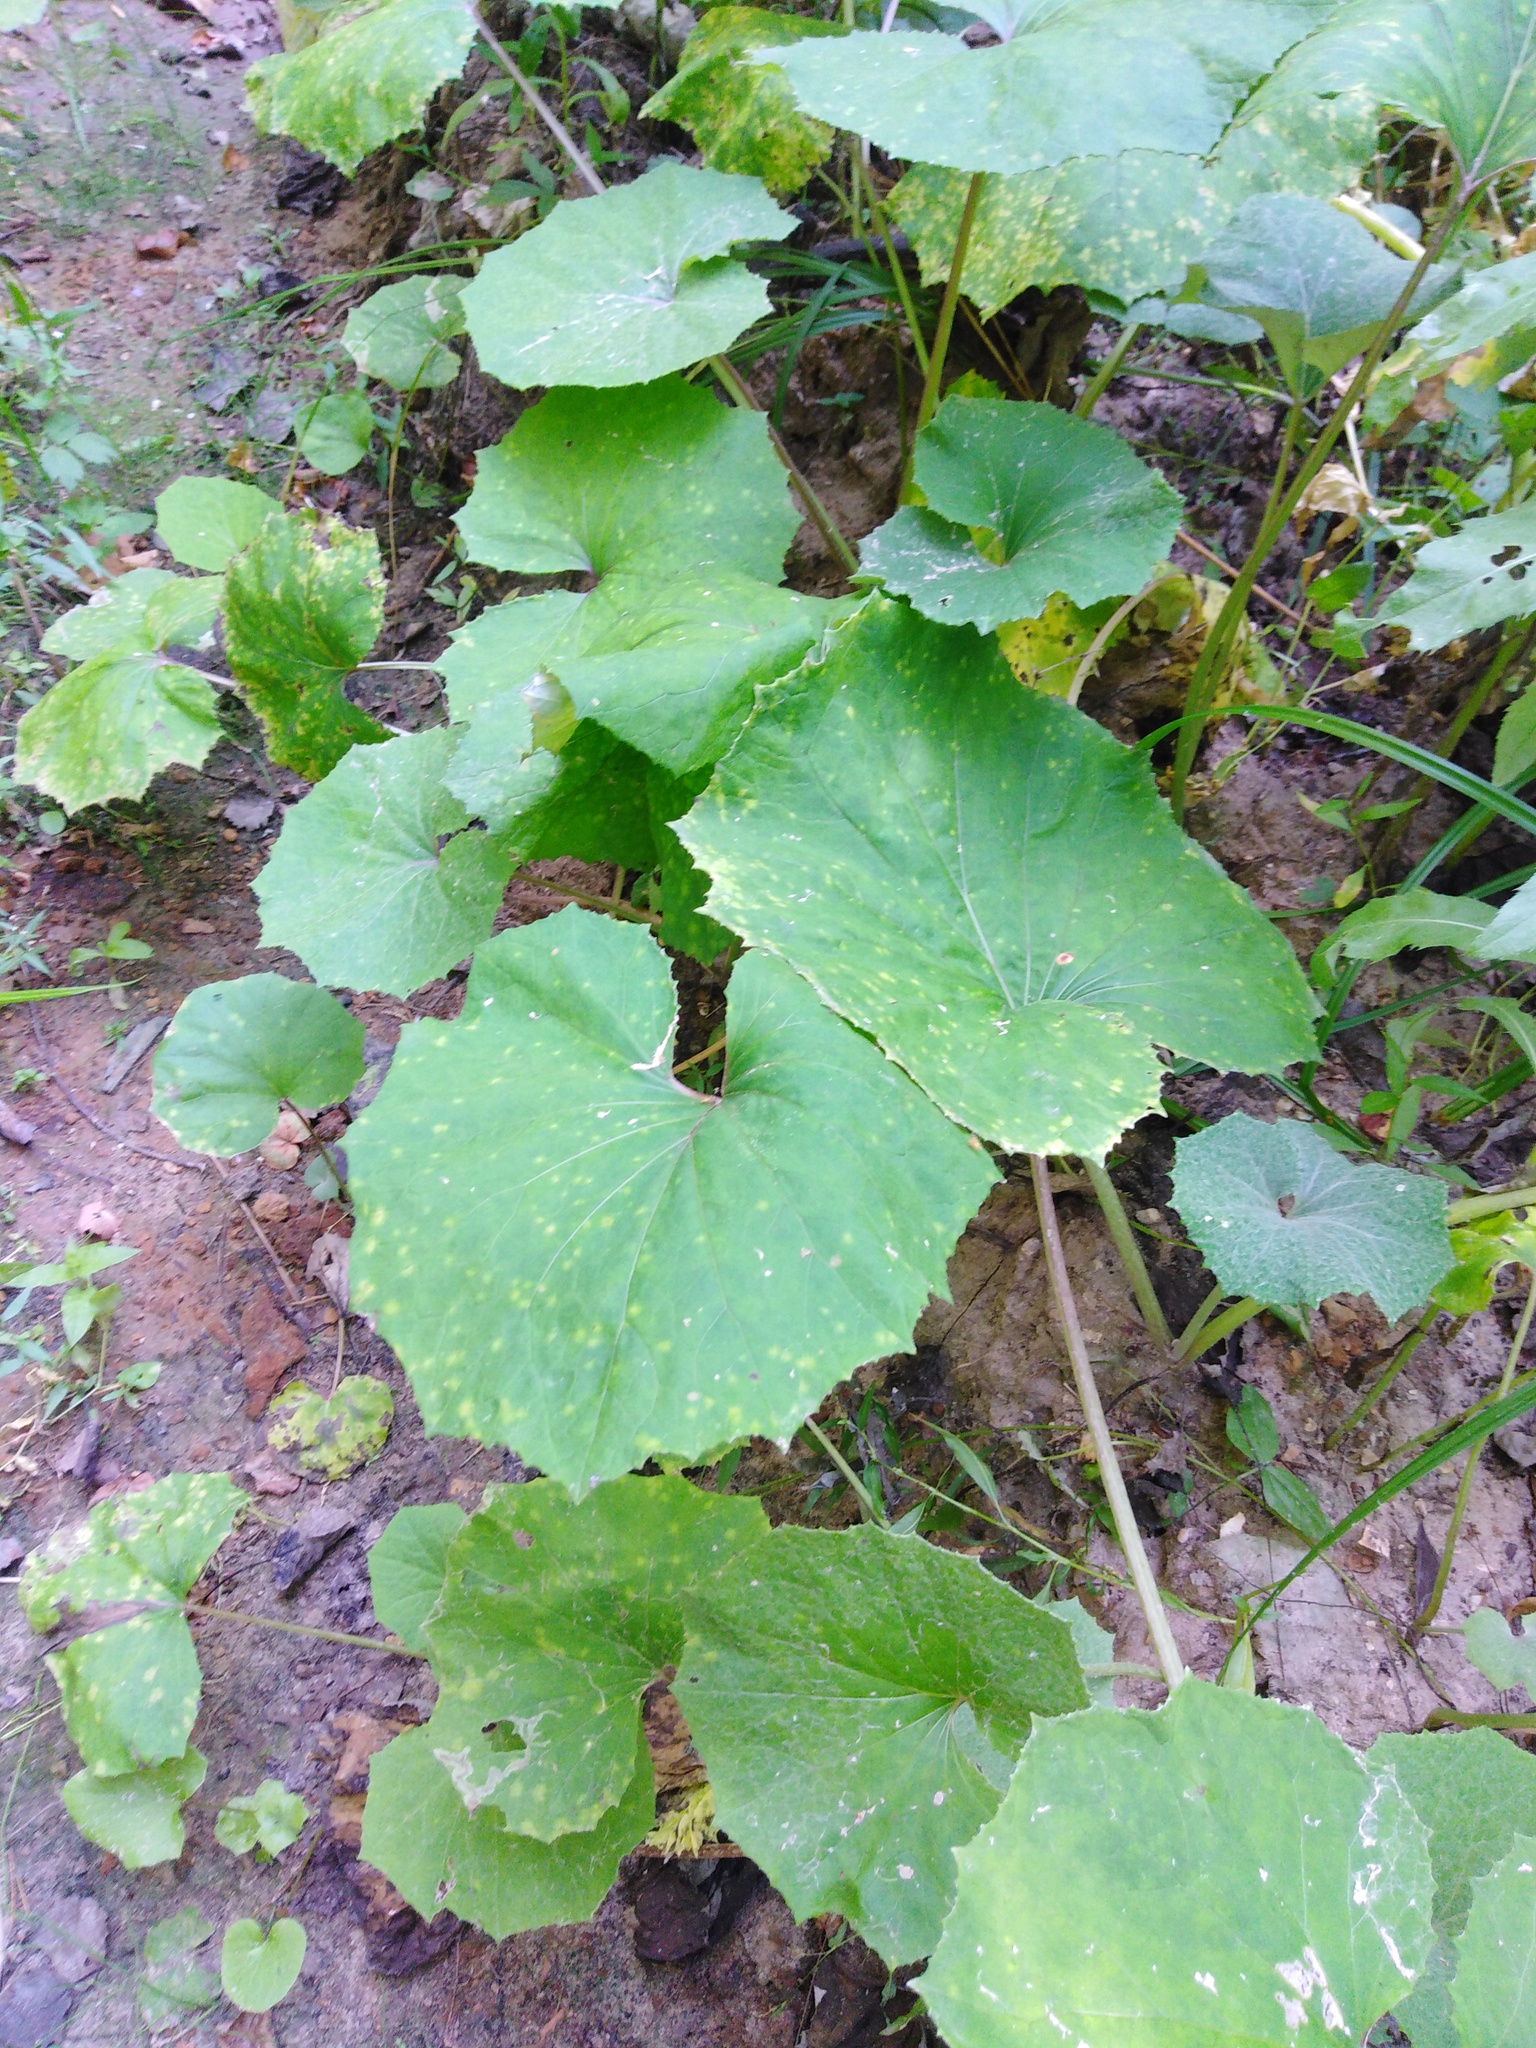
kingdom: Plantae
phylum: Tracheophyta
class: Magnoliopsida
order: Asterales
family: Asteraceae
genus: Tussilago
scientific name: Tussilago farfara
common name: Coltsfoot
